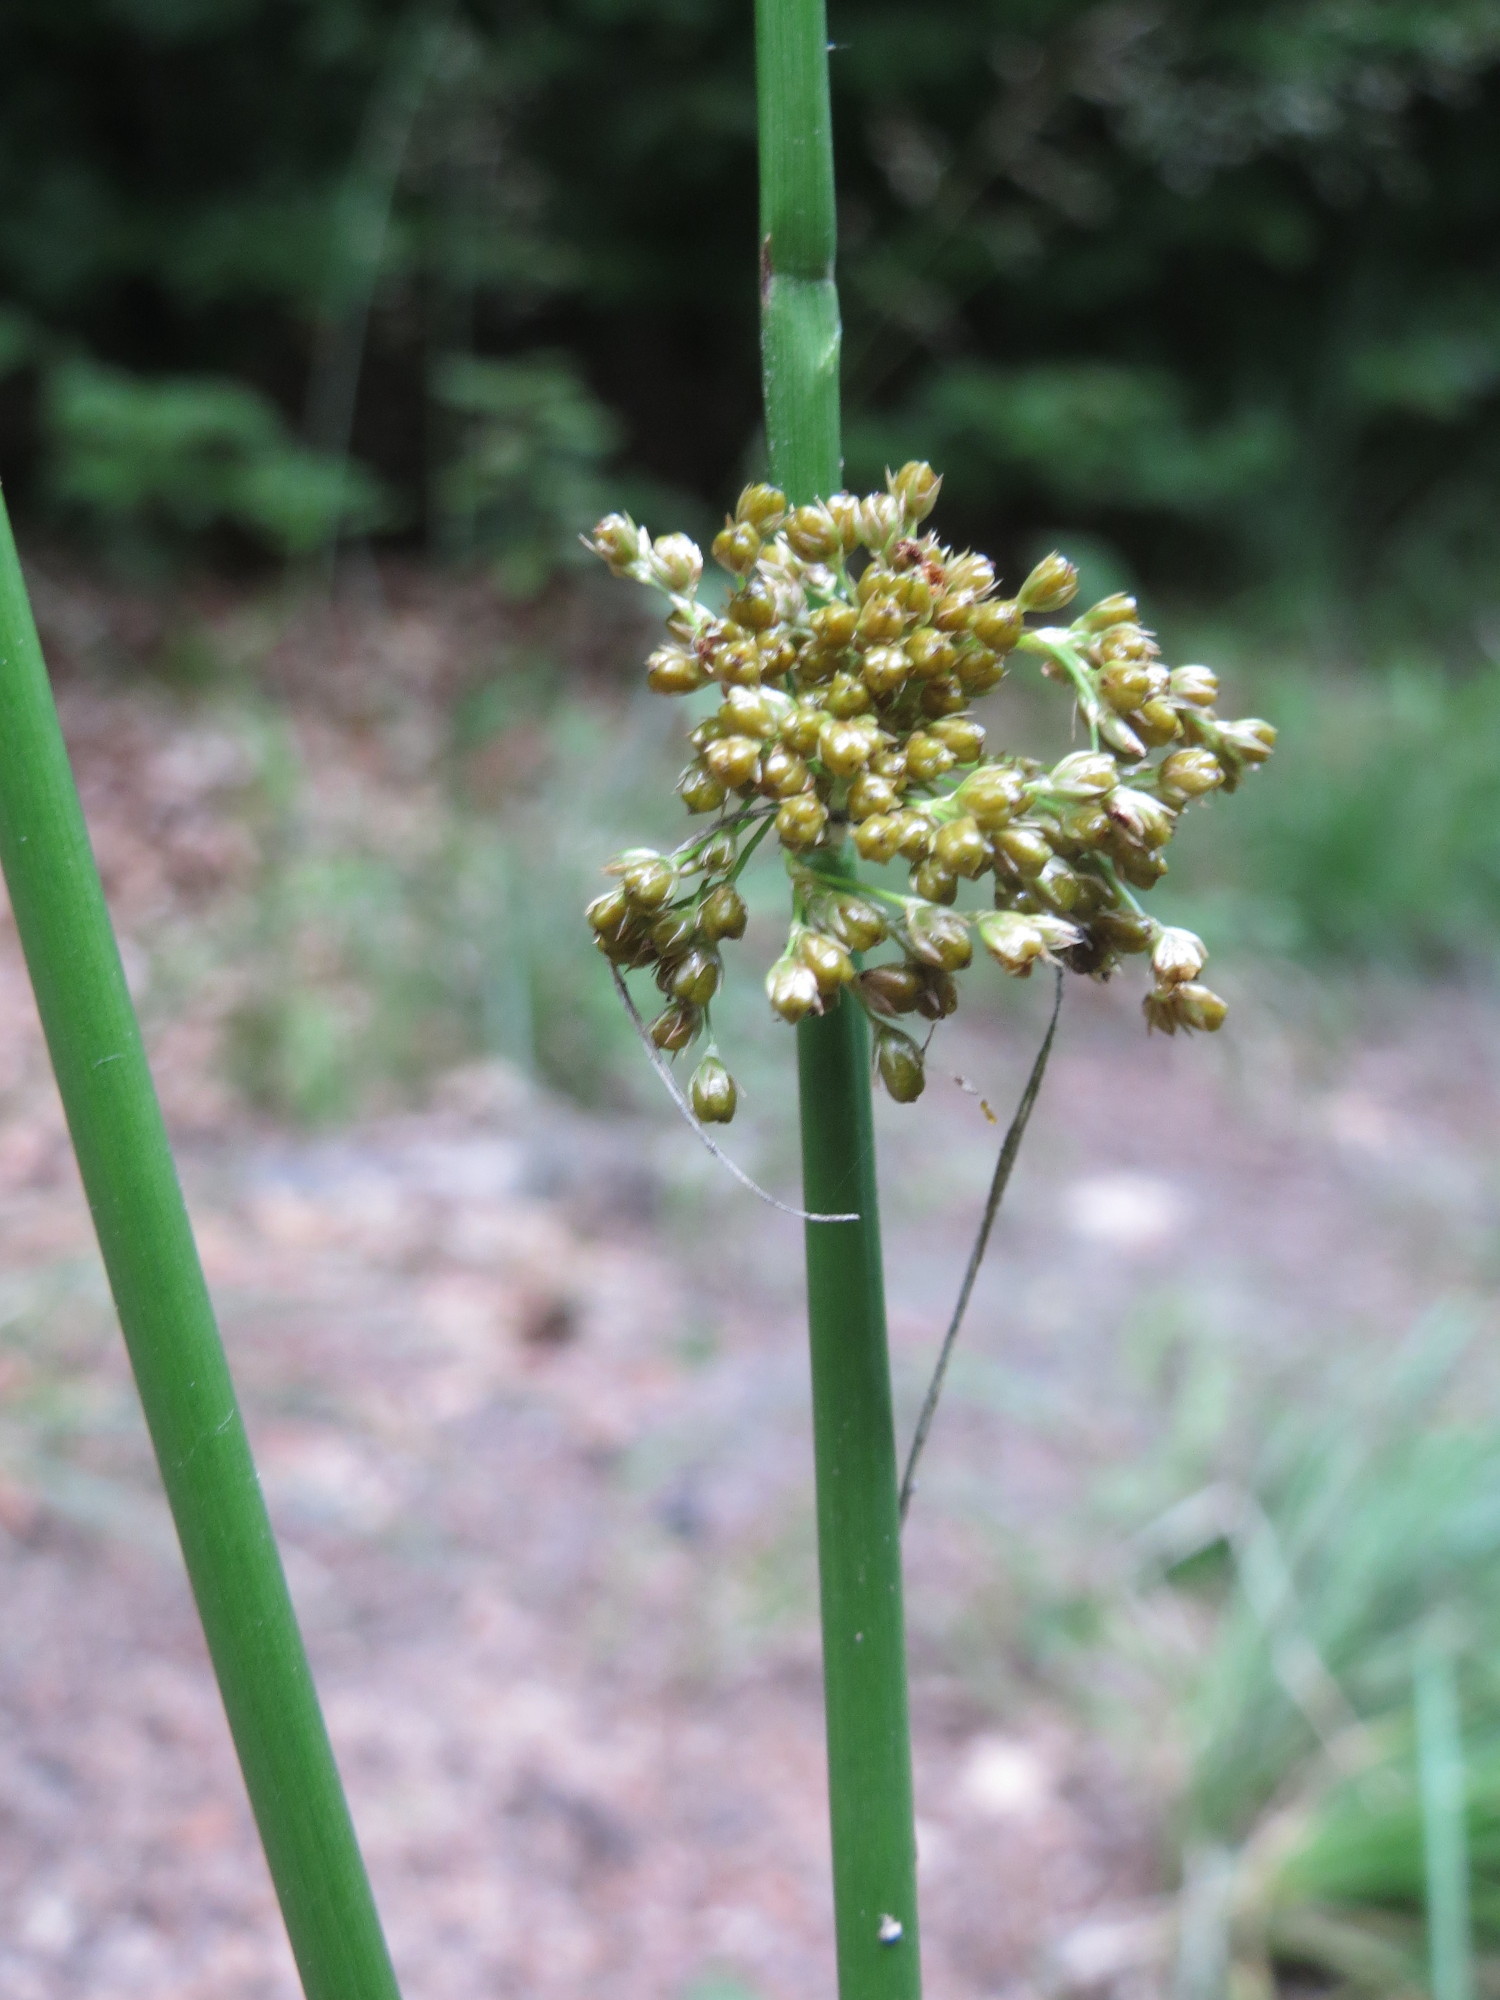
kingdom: Plantae
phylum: Tracheophyta
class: Liliopsida
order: Poales
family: Juncaceae
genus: Juncus
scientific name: Juncus effusus
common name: Soft rush
